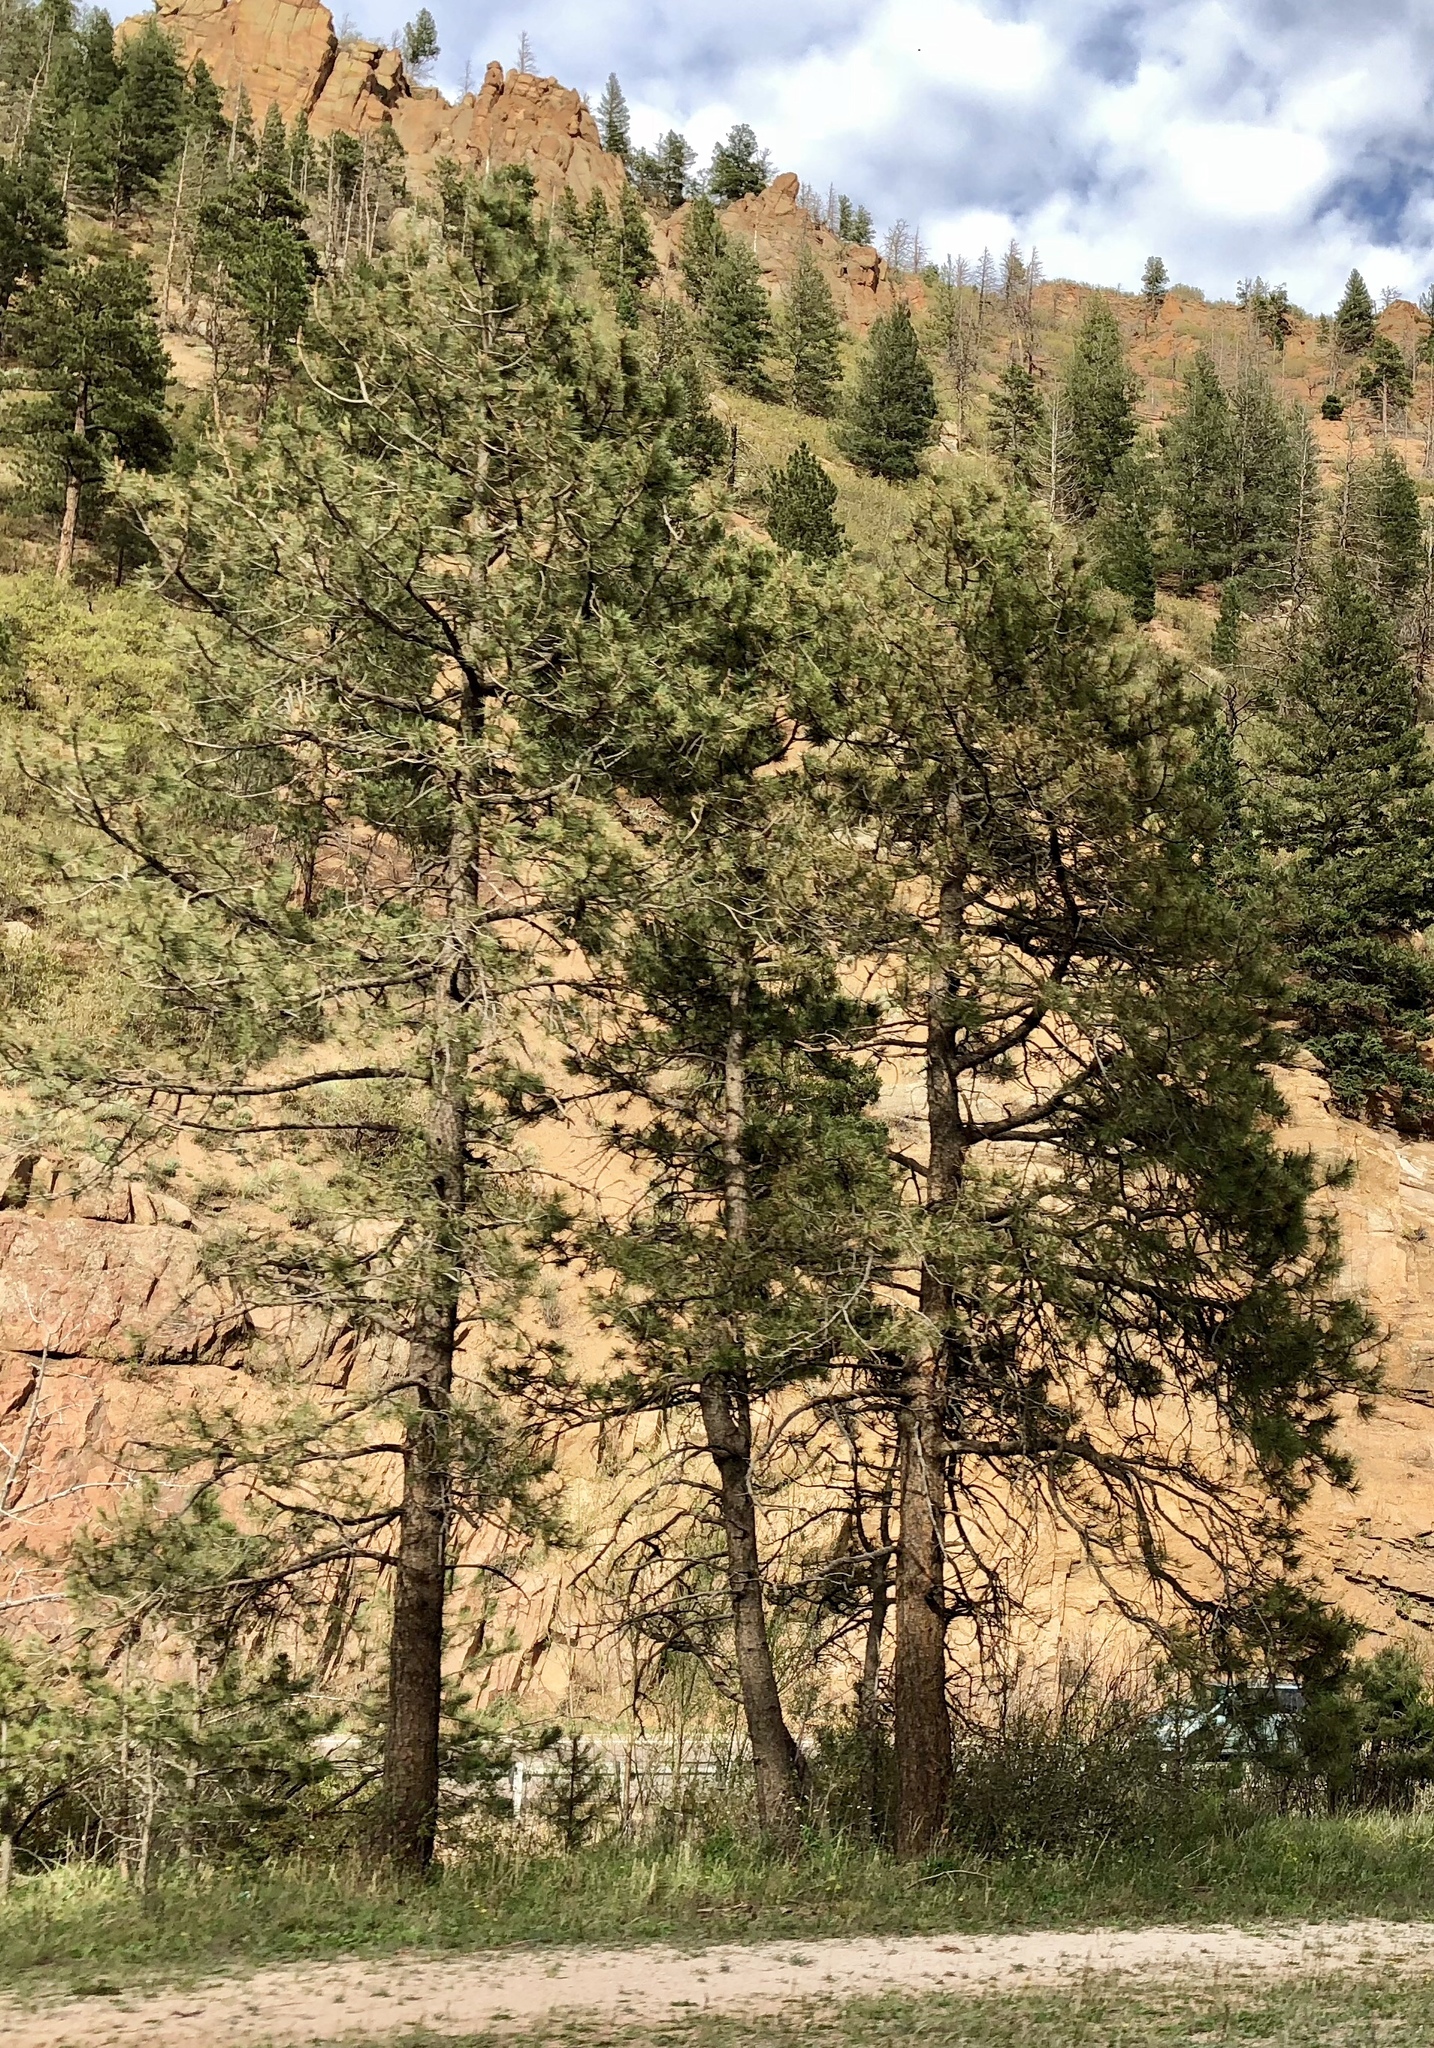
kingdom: Plantae
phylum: Tracheophyta
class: Pinopsida
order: Pinales
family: Pinaceae
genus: Pinus
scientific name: Pinus ponderosa
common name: Western yellow-pine
